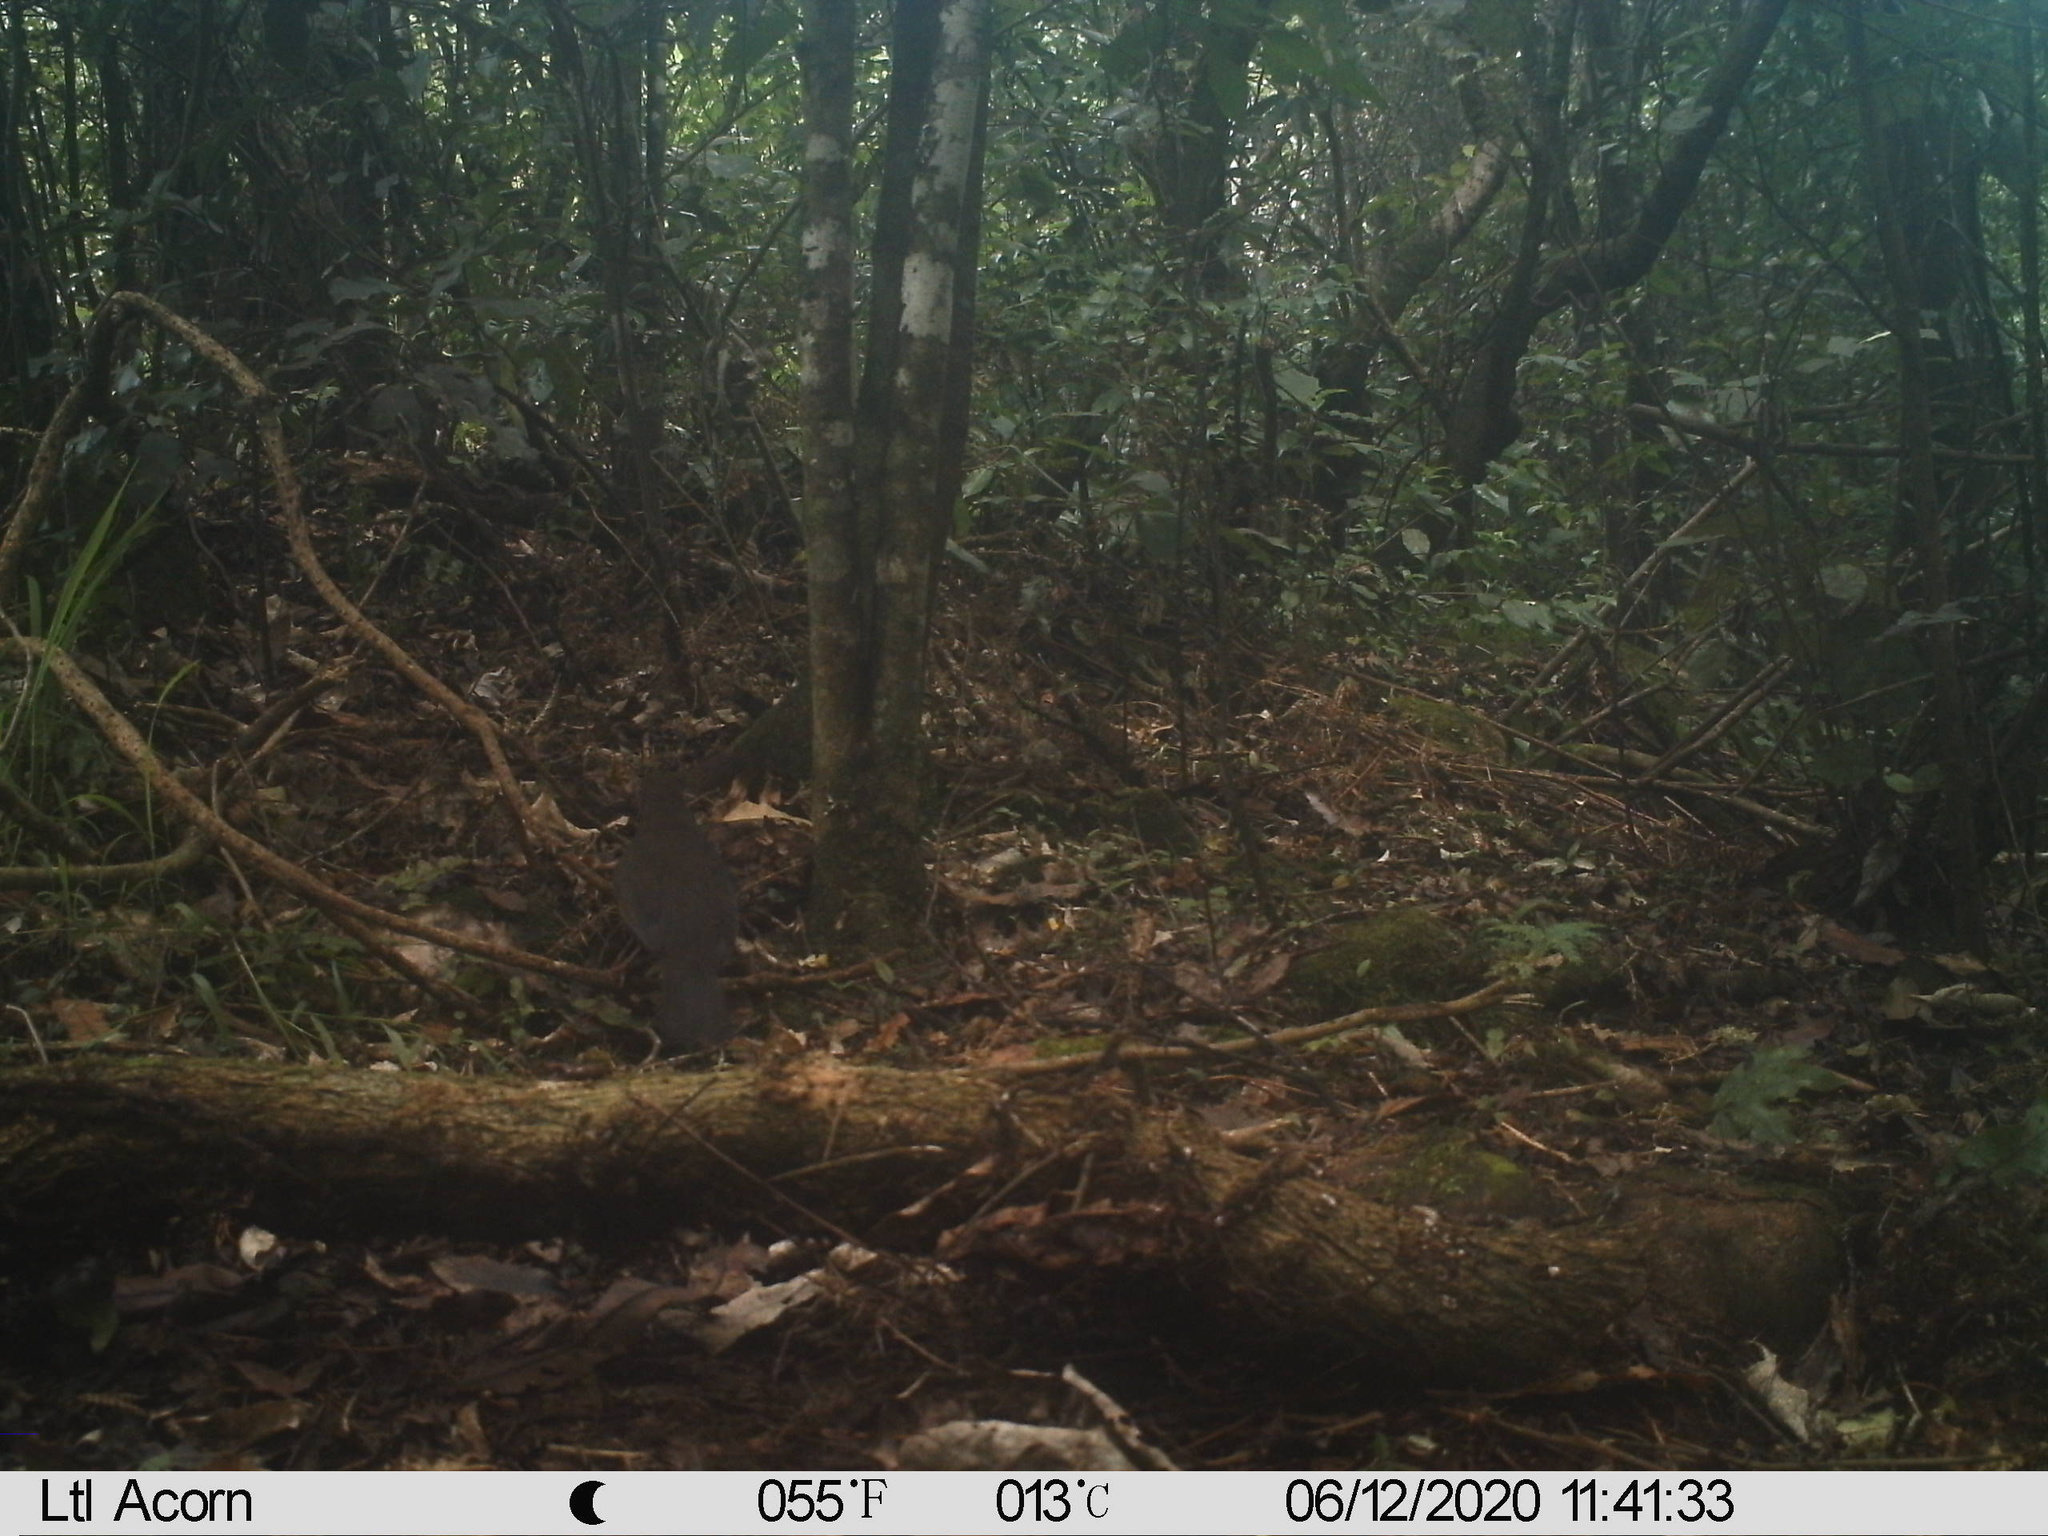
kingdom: Animalia
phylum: Chordata
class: Aves
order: Passeriformes
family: Turdidae
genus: Turdus
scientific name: Turdus merula
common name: Common blackbird
